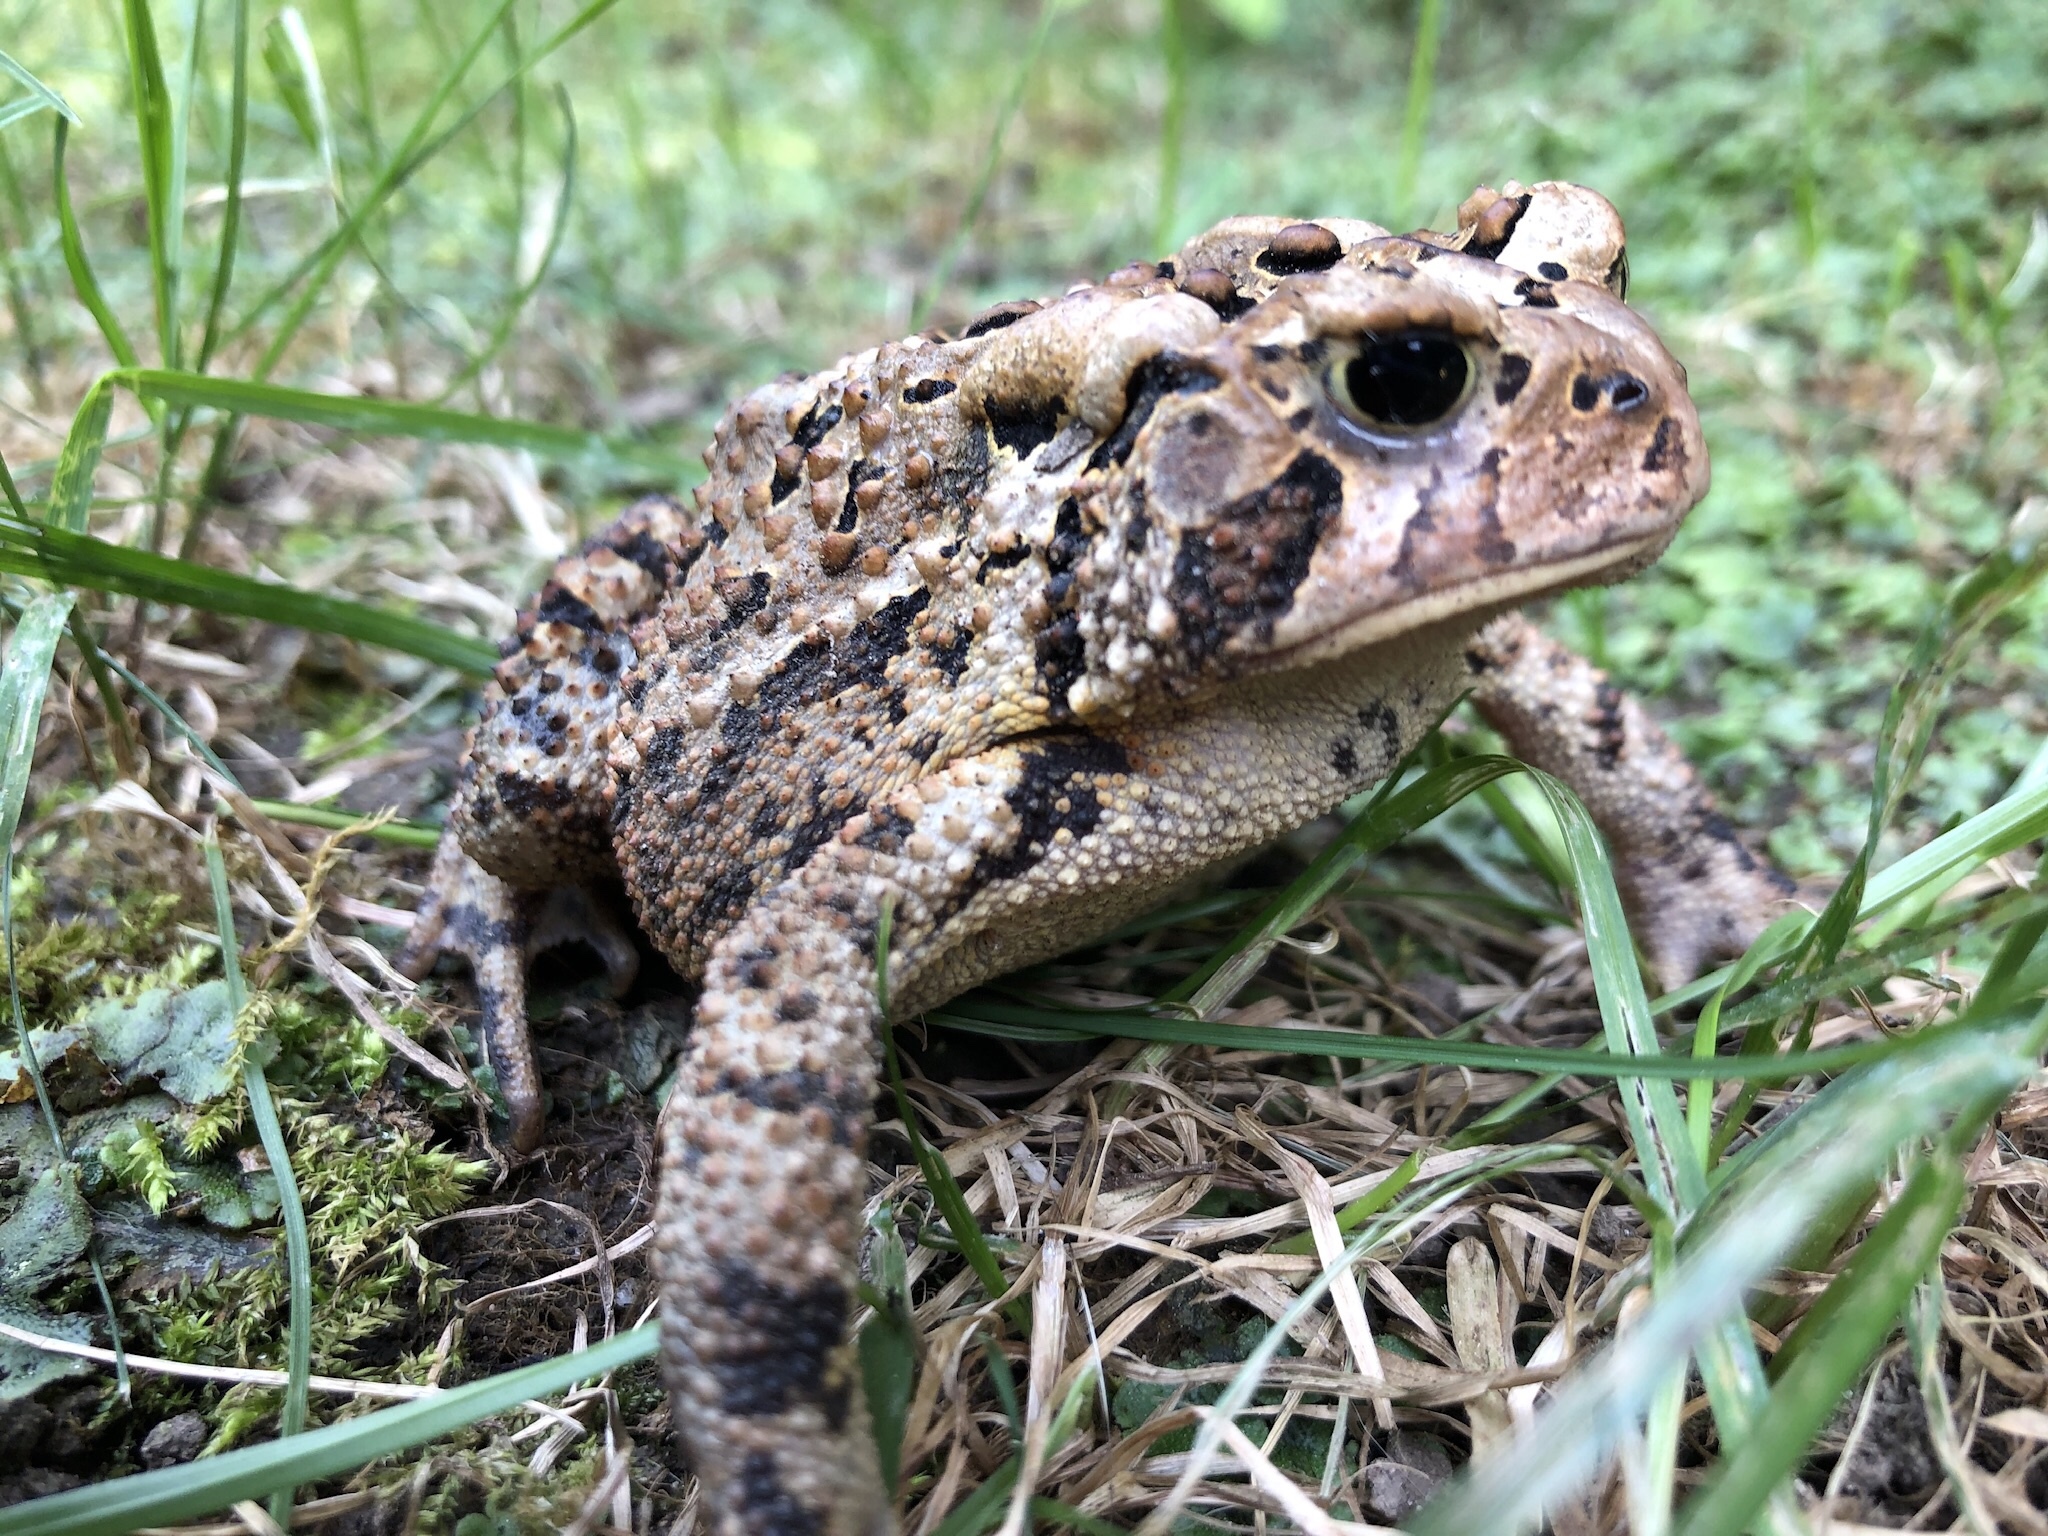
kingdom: Animalia
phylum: Chordata
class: Amphibia
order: Anura
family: Bufonidae
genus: Anaxyrus
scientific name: Anaxyrus americanus
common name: American toad
